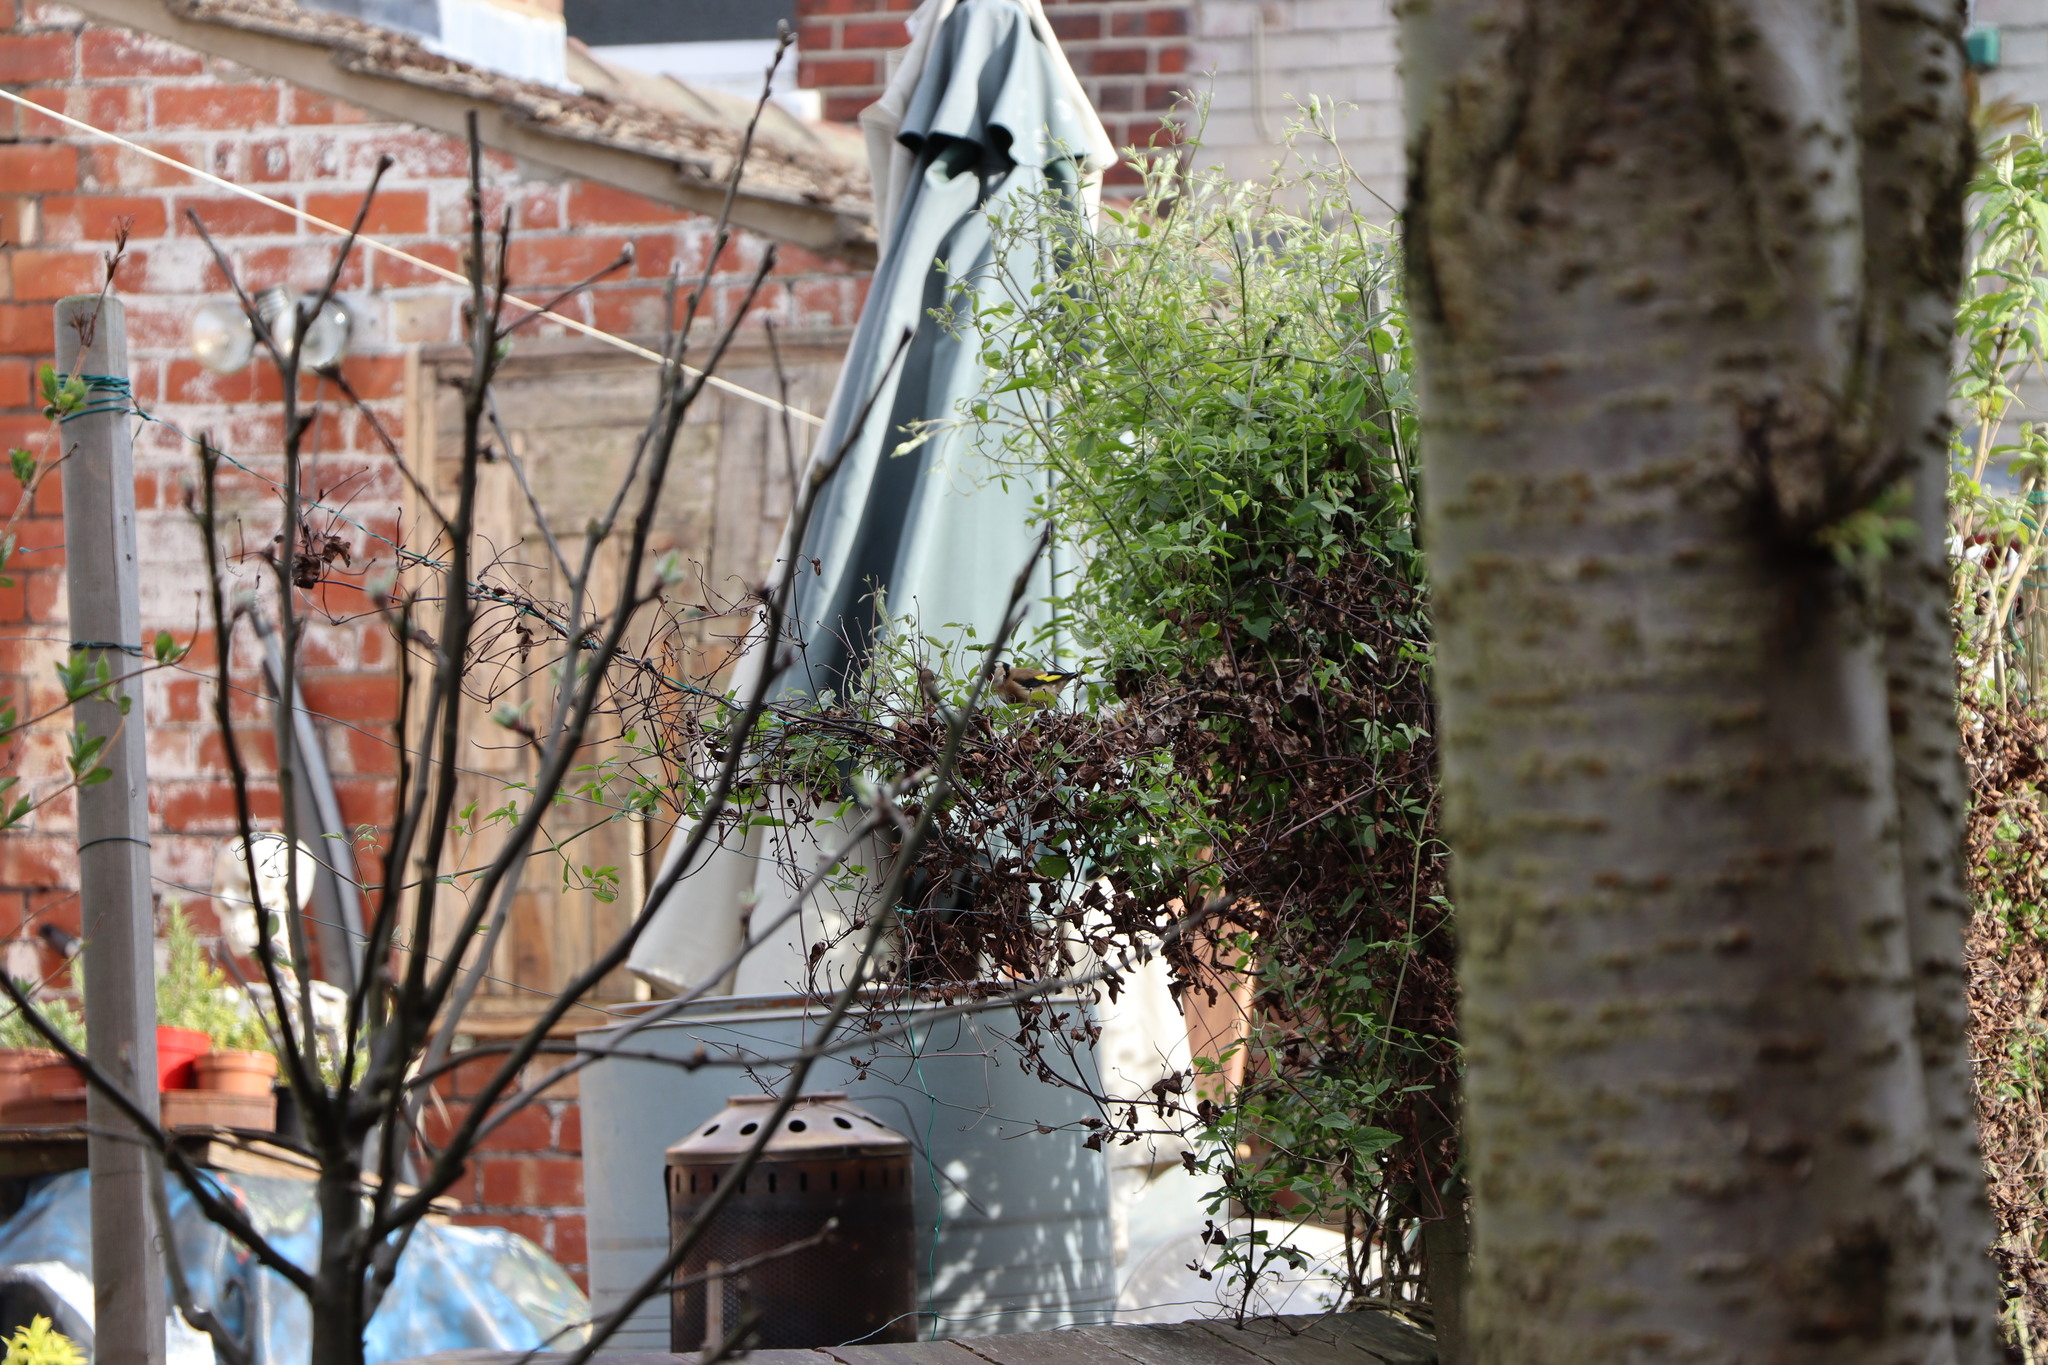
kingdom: Animalia
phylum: Chordata
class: Aves
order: Passeriformes
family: Fringillidae
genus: Carduelis
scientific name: Carduelis carduelis
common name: European goldfinch
